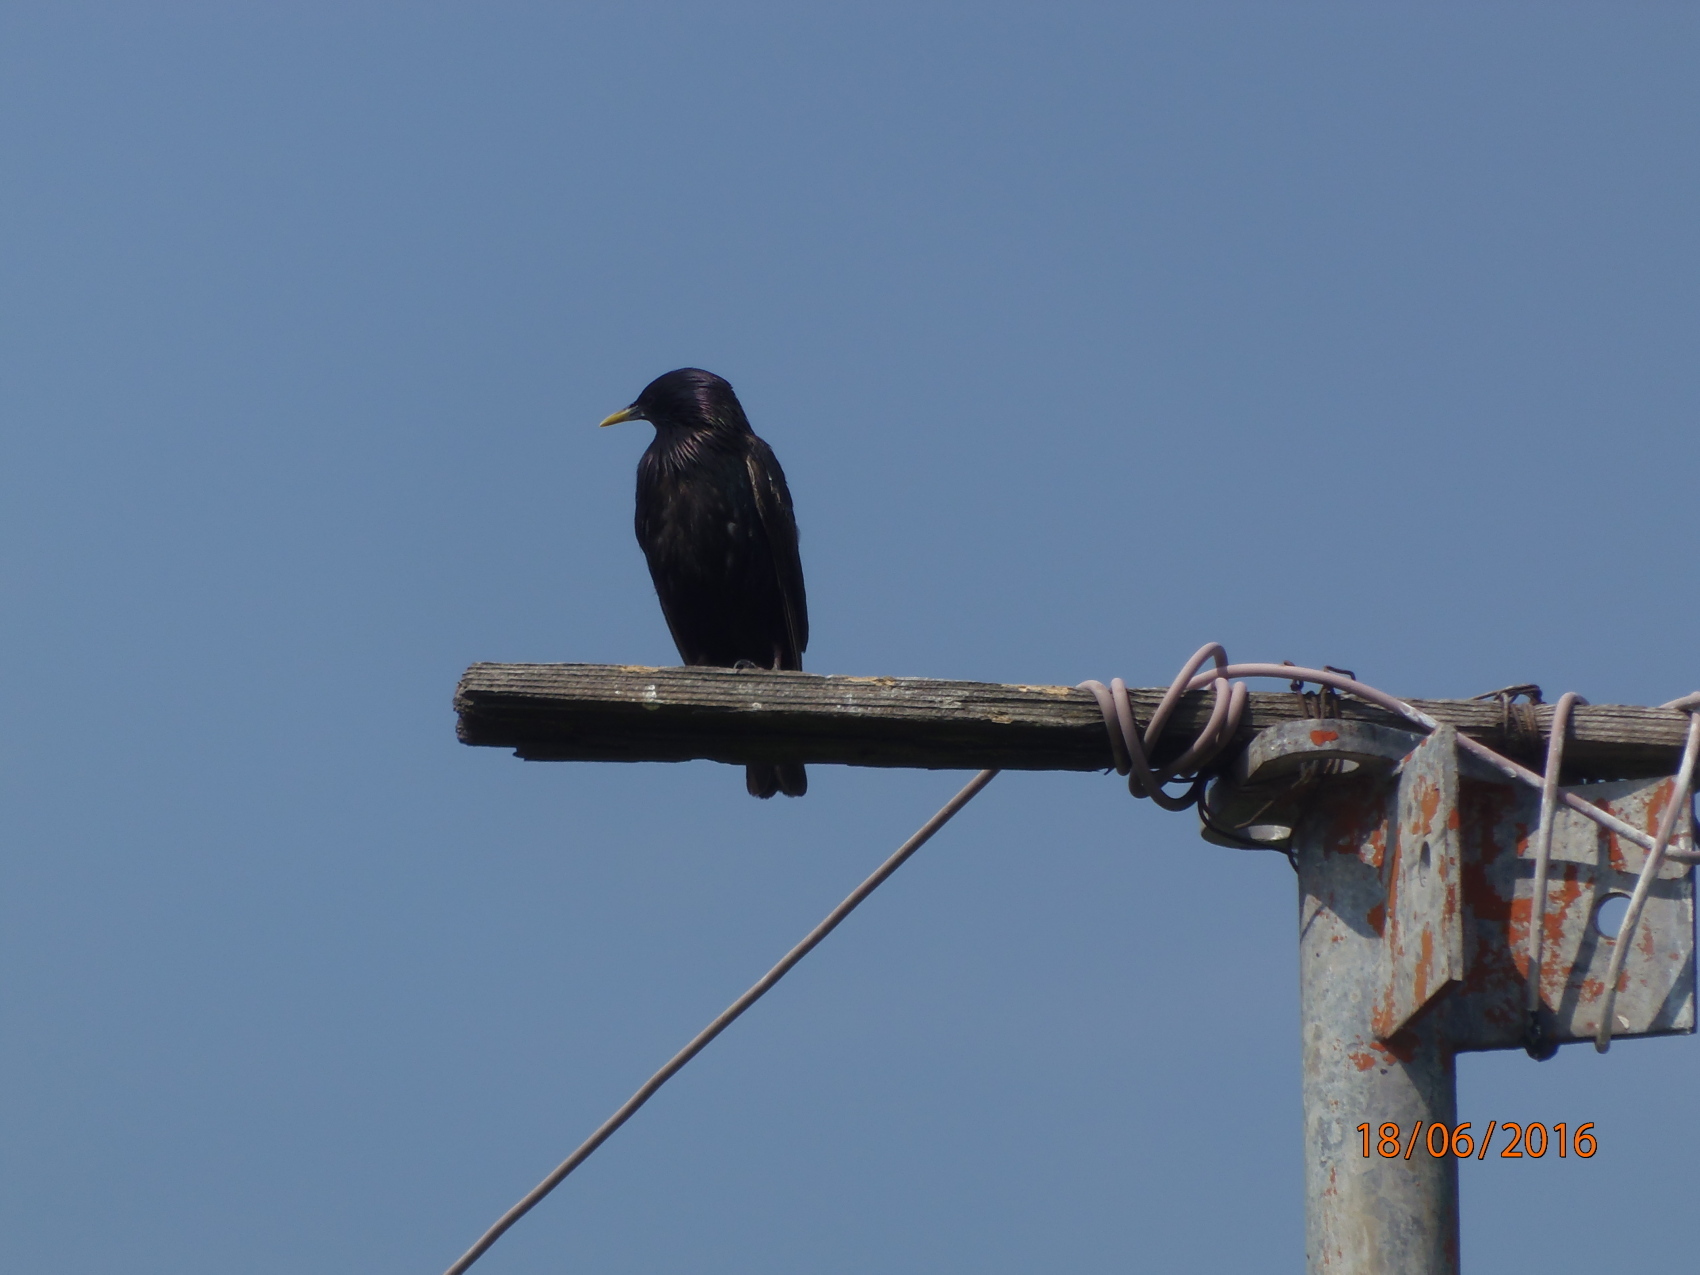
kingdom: Animalia
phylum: Chordata
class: Aves
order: Passeriformes
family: Sturnidae
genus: Sturnus
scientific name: Sturnus vulgaris
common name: Common starling
